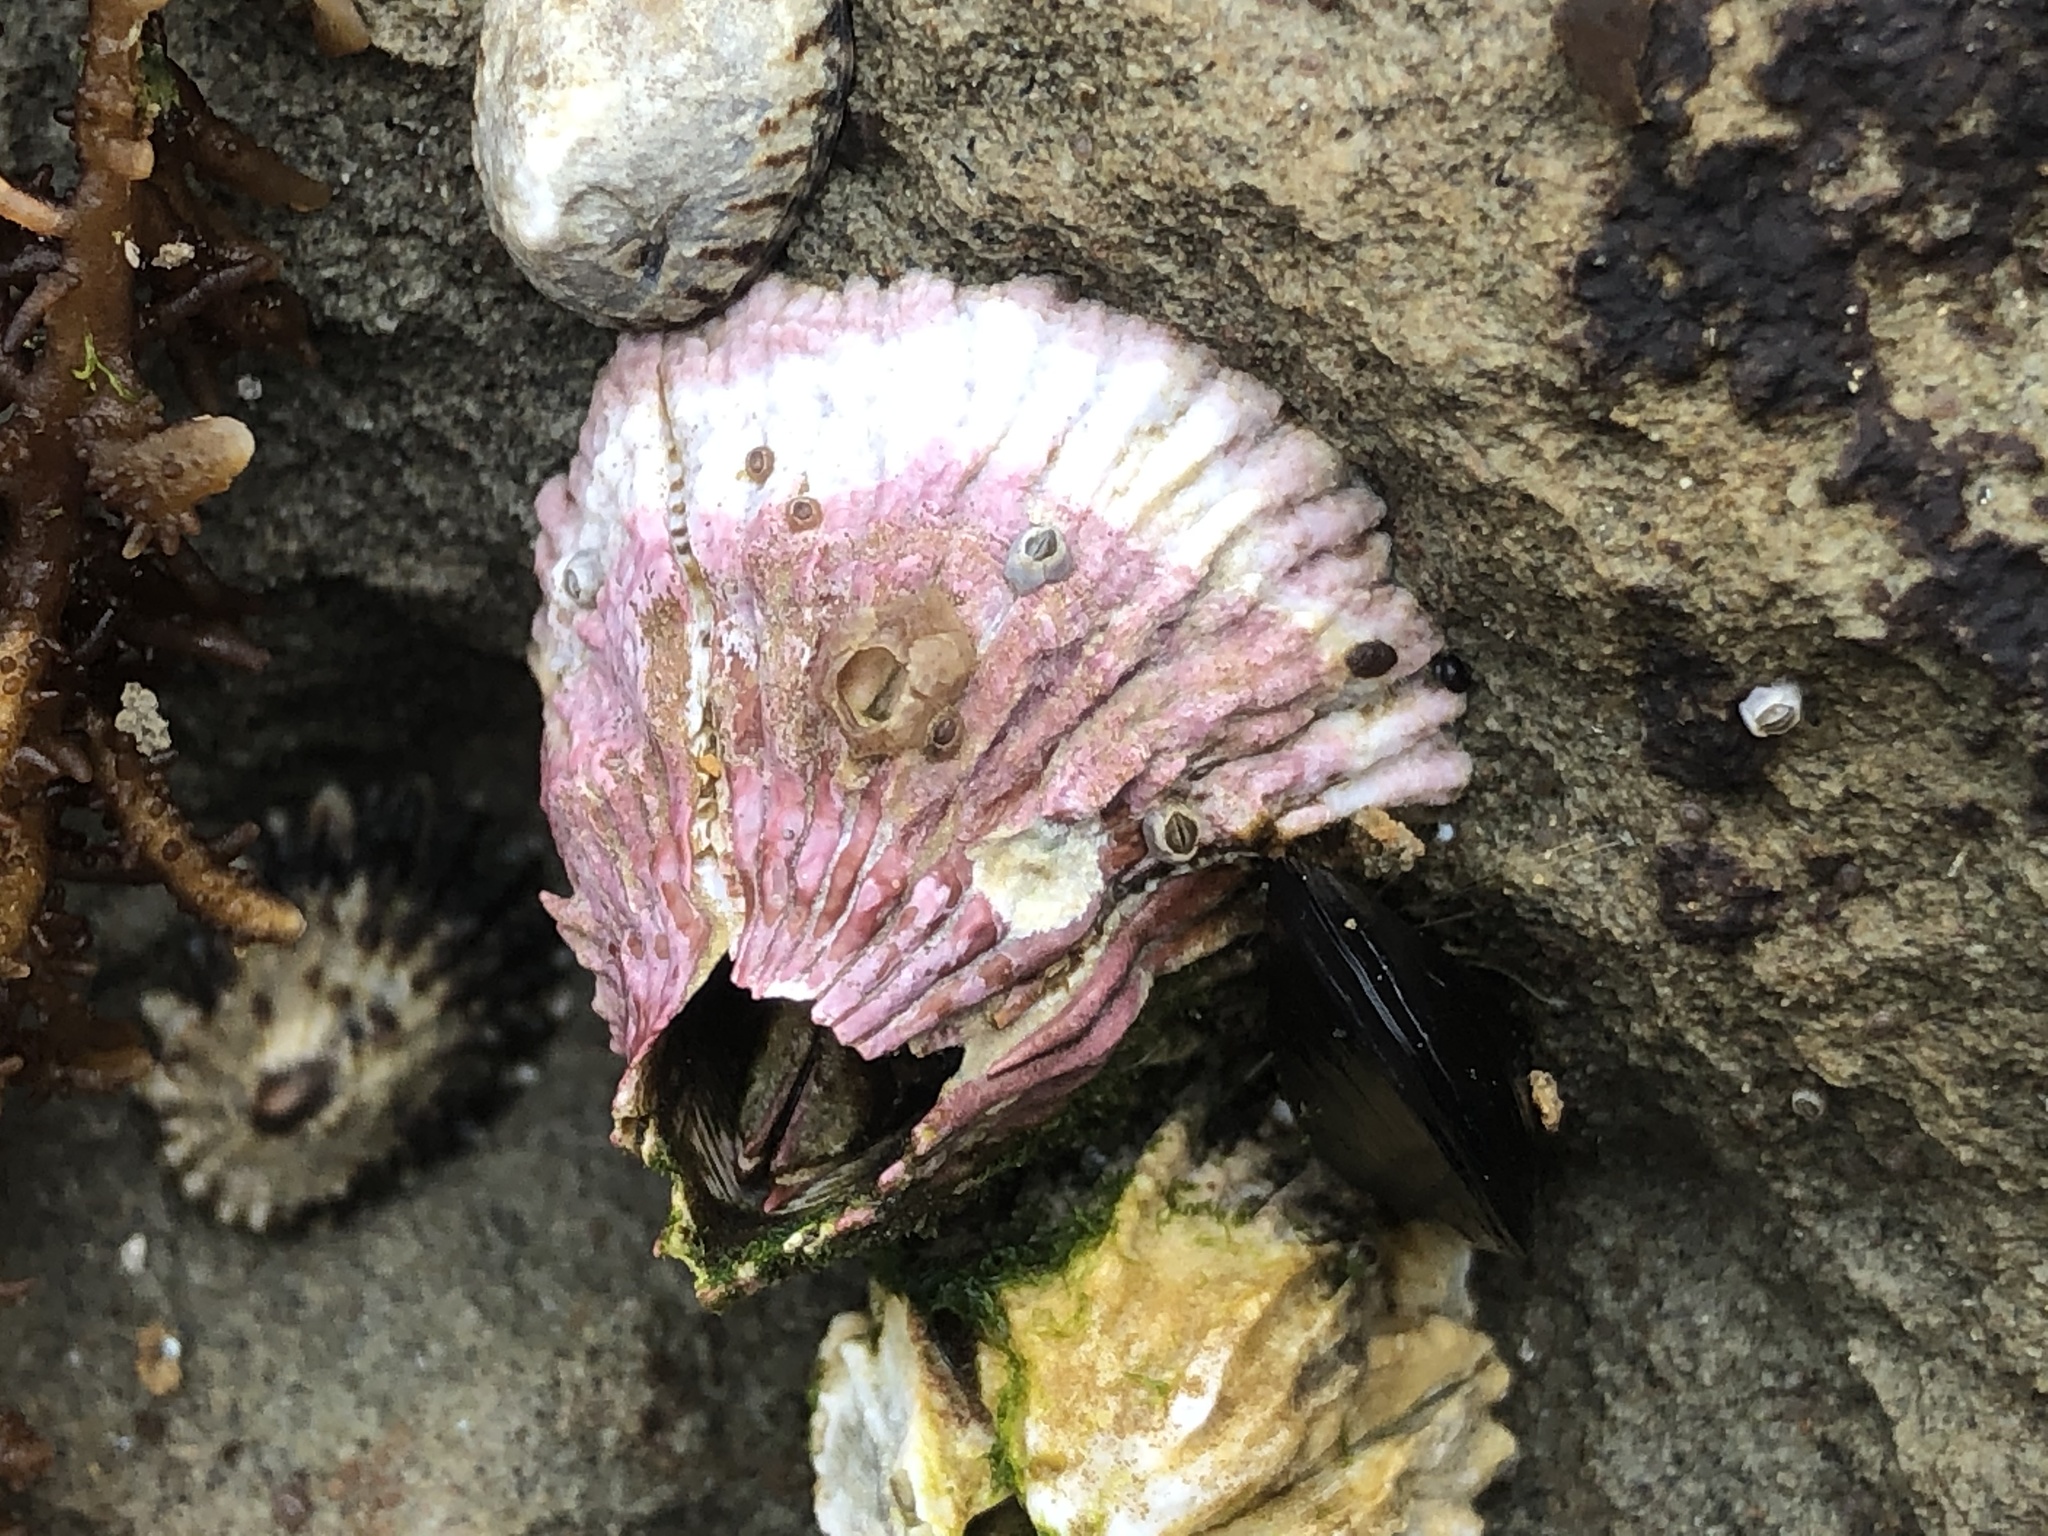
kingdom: Animalia
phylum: Arthropoda
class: Maxillopoda
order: Sessilia
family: Tetraclitidae
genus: Tetraclita
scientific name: Tetraclita rubescens
